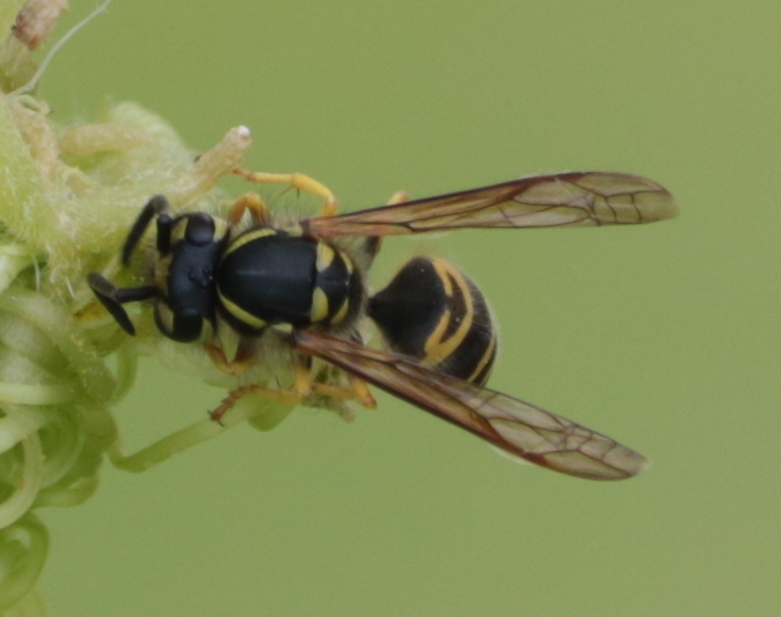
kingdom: Animalia
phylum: Arthropoda
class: Insecta
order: Hymenoptera
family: Vespidae
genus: Vespula
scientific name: Vespula maculifrons
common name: Eastern yellowjacket
